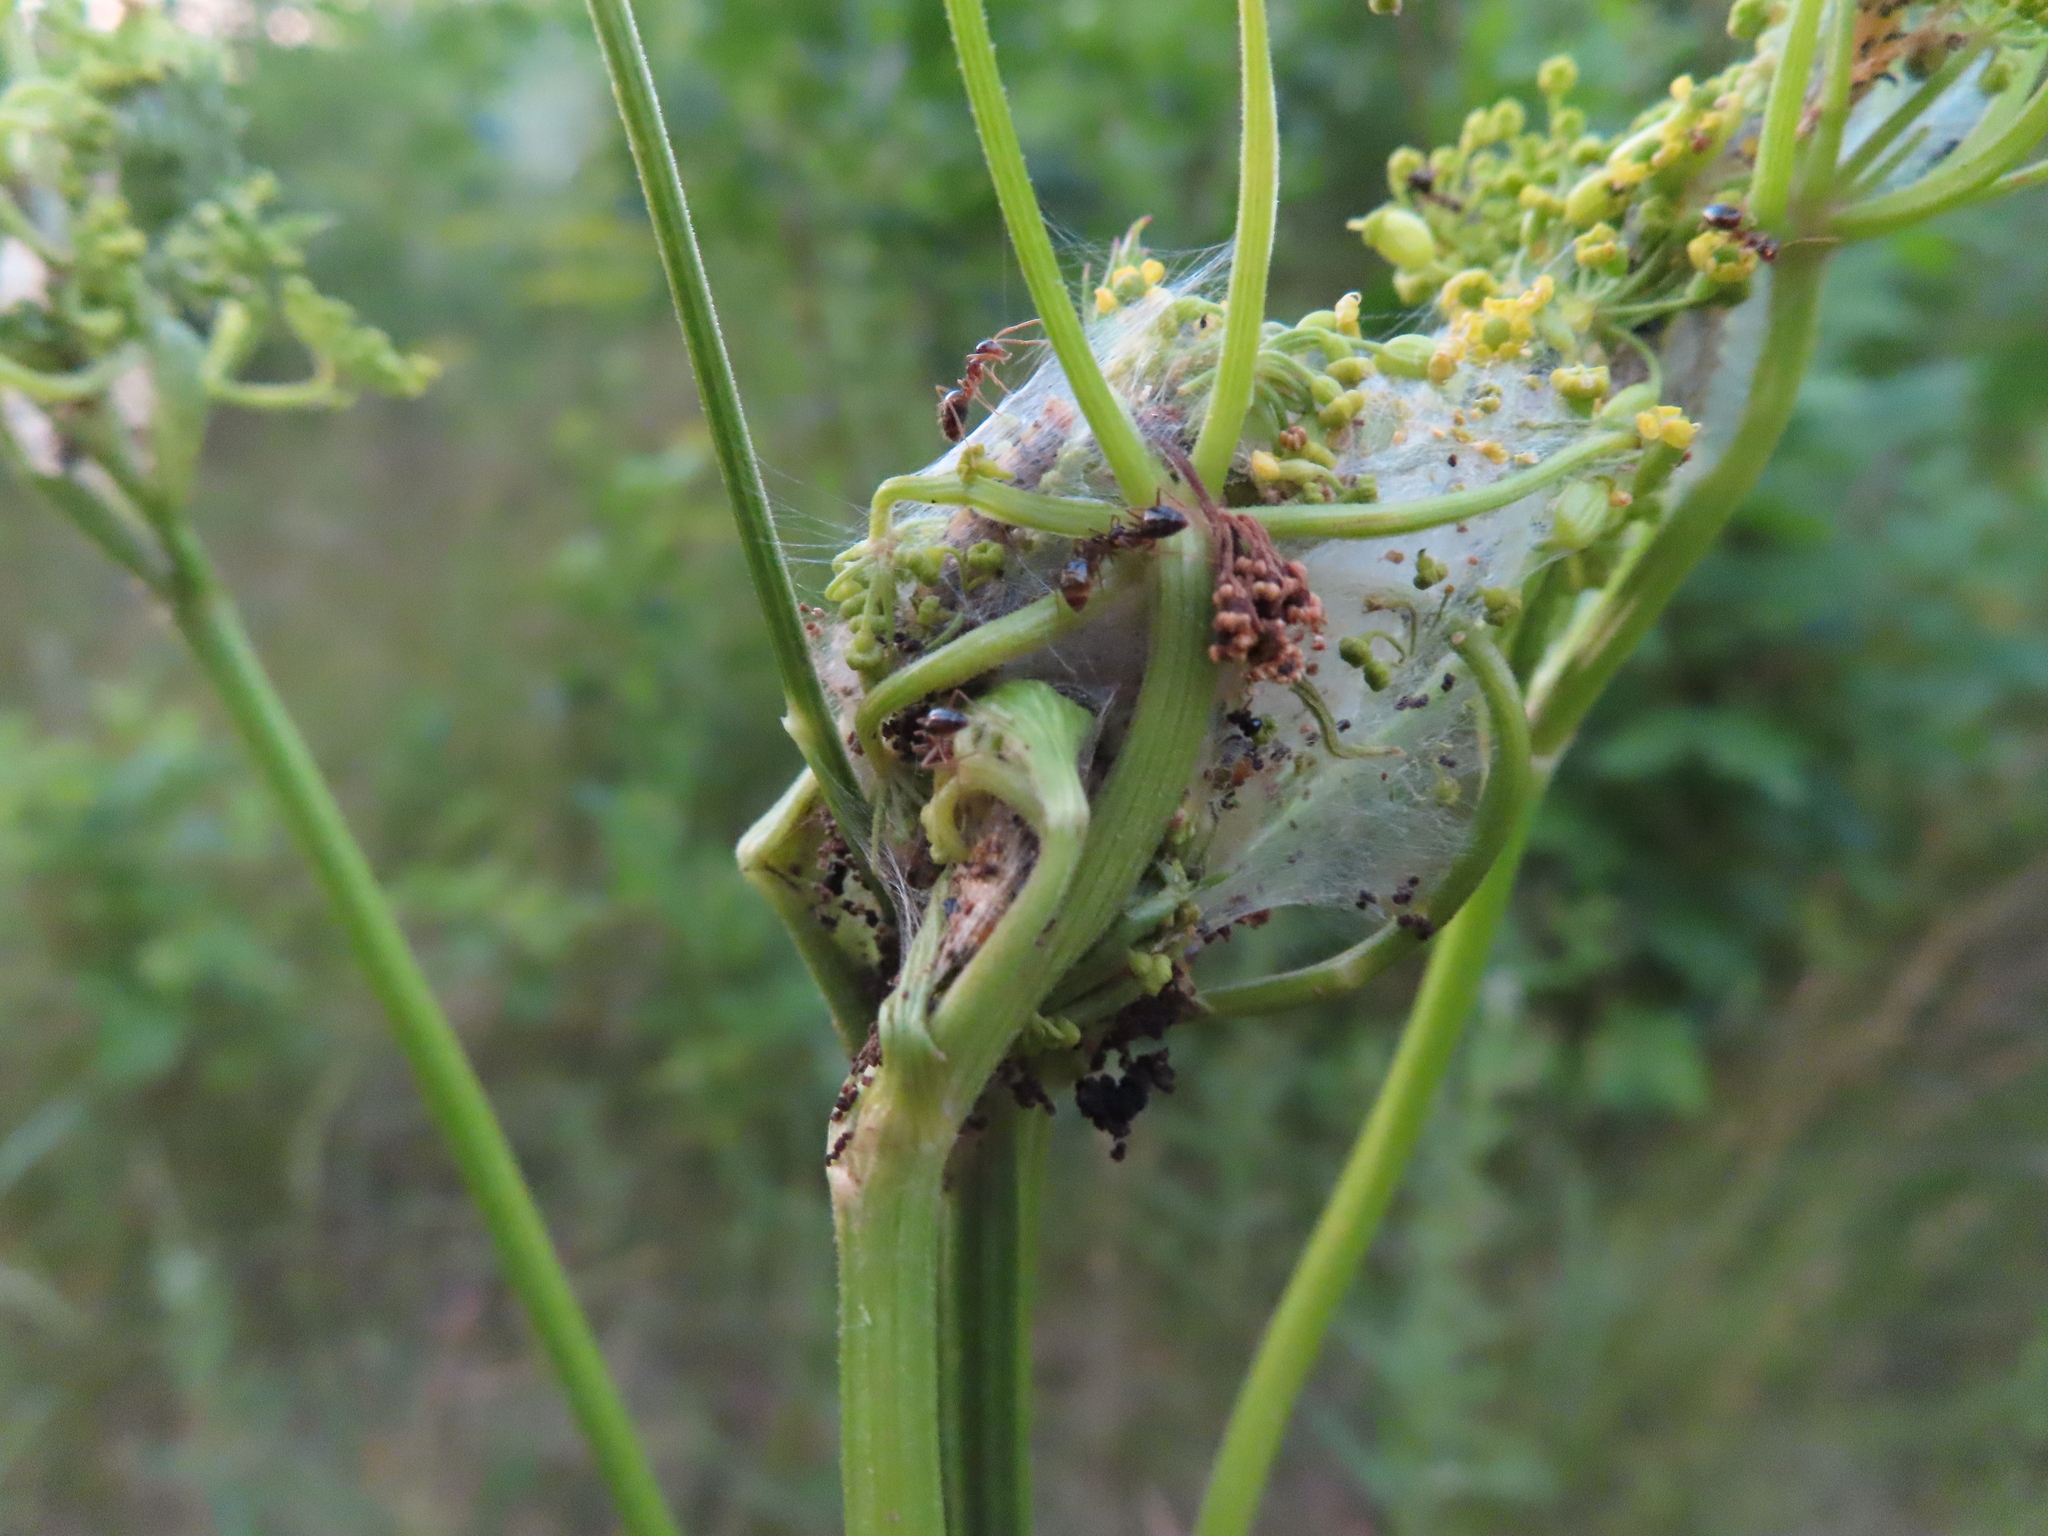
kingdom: Animalia
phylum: Arthropoda
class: Insecta
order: Hymenoptera
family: Formicidae
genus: Prenolepis
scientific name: Prenolepis imparis
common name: Small honey ant
